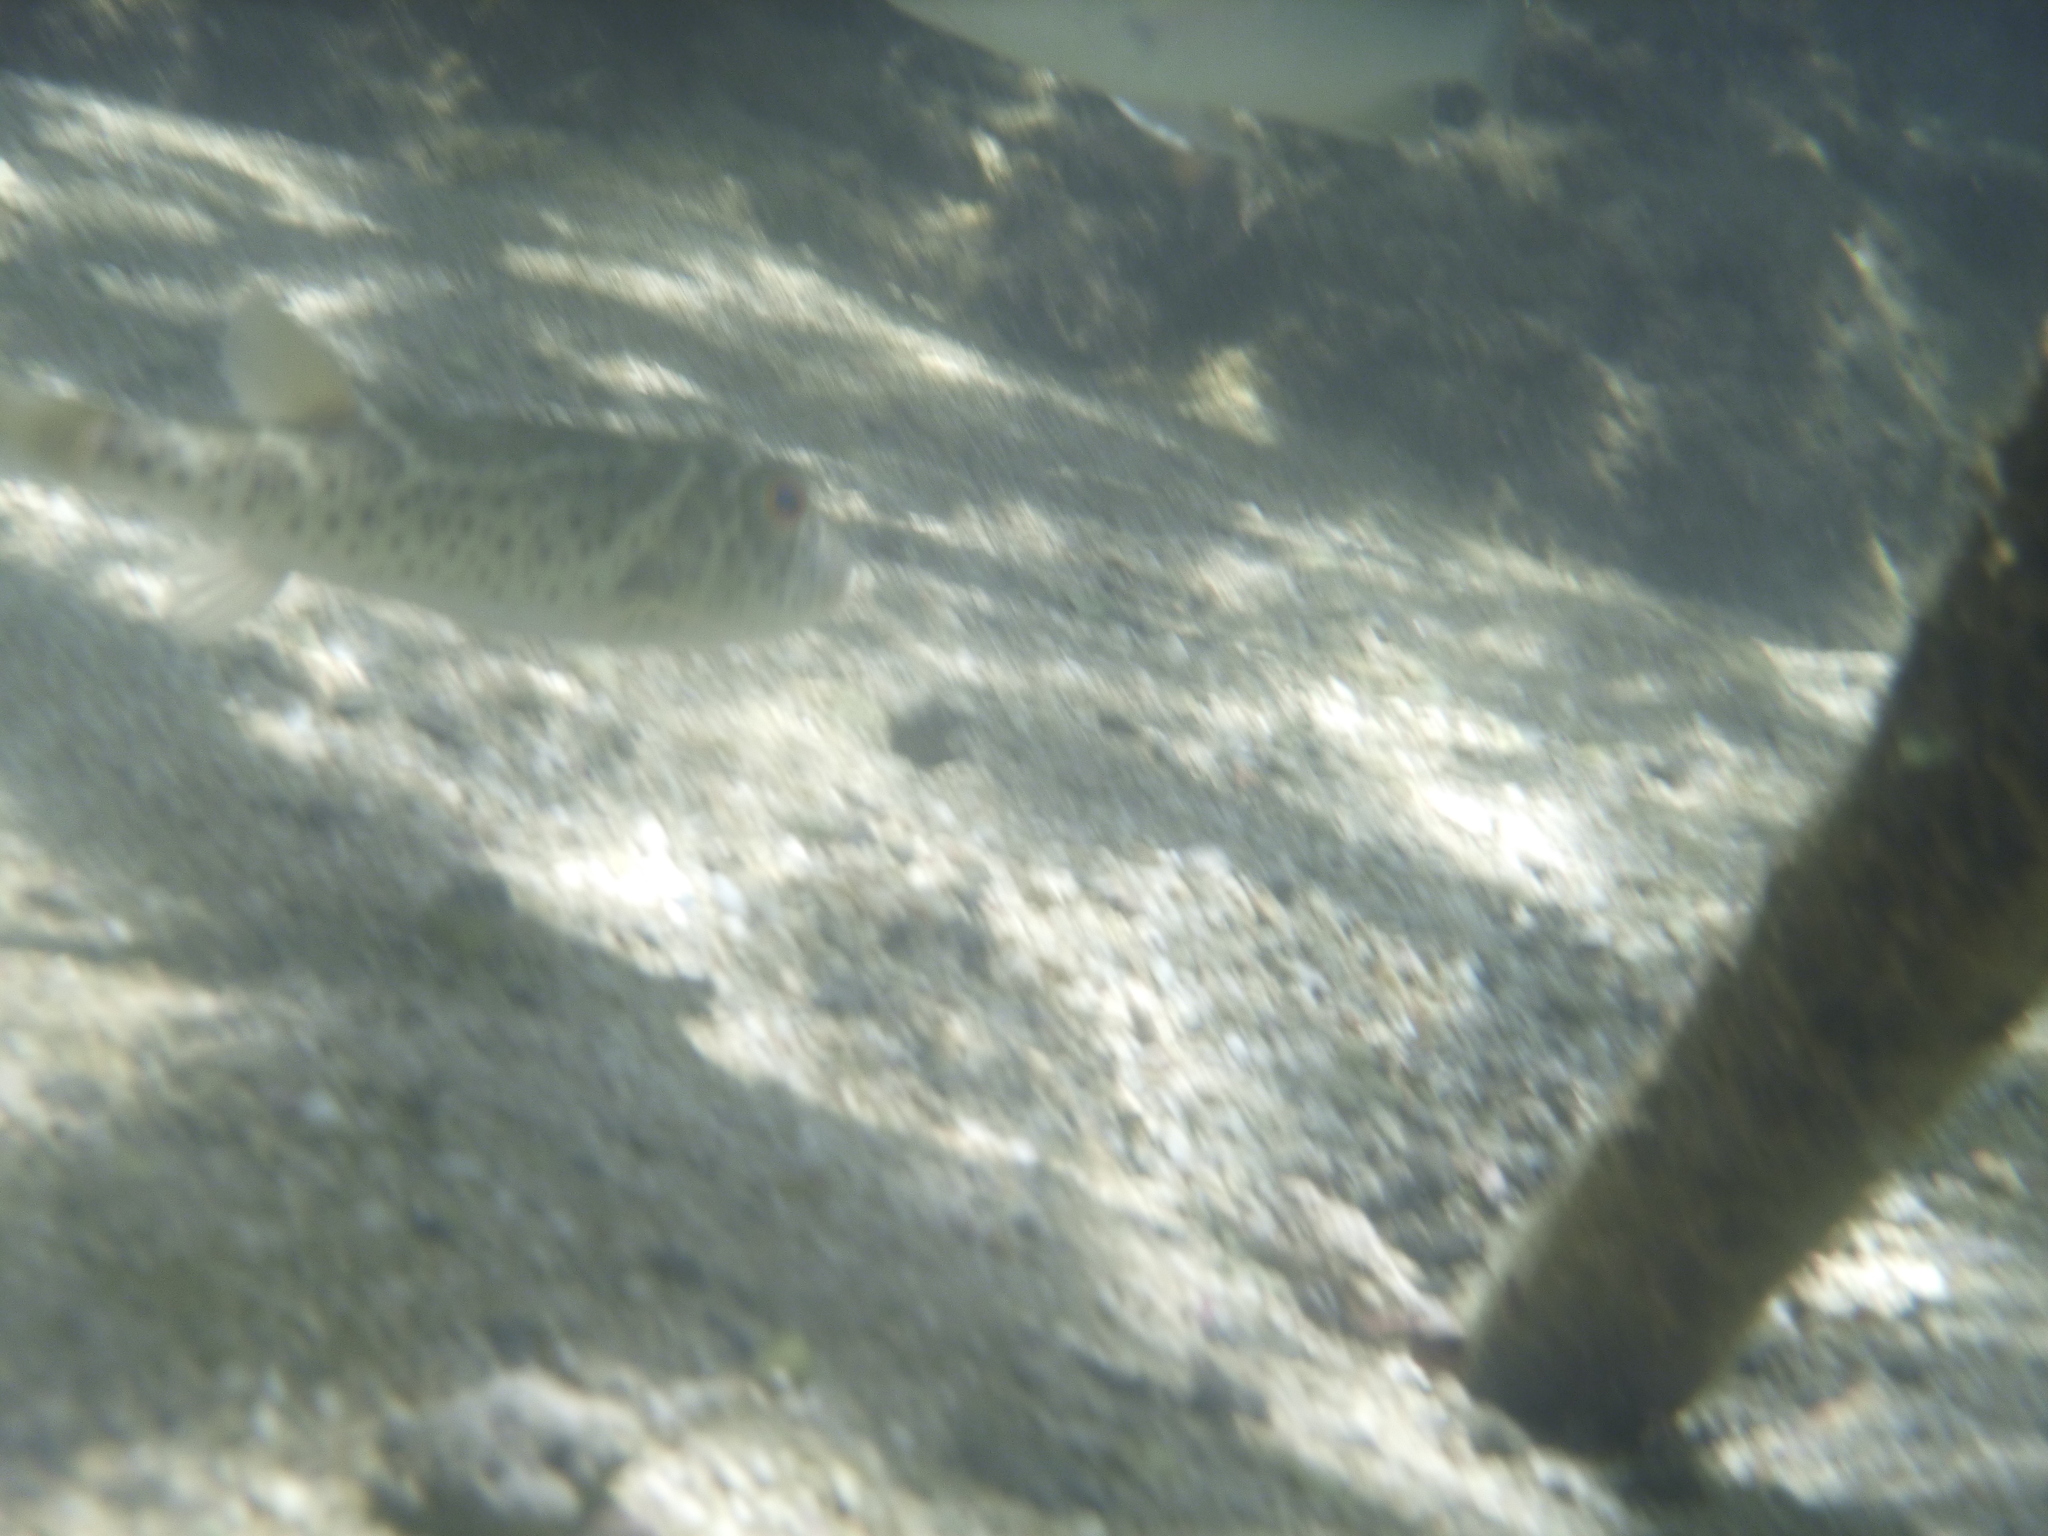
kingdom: Animalia
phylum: Chordata
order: Tetraodontiformes
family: Tetraodontidae
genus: Sphoeroides
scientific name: Sphoeroides annulatus
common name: Bullseye puffer
